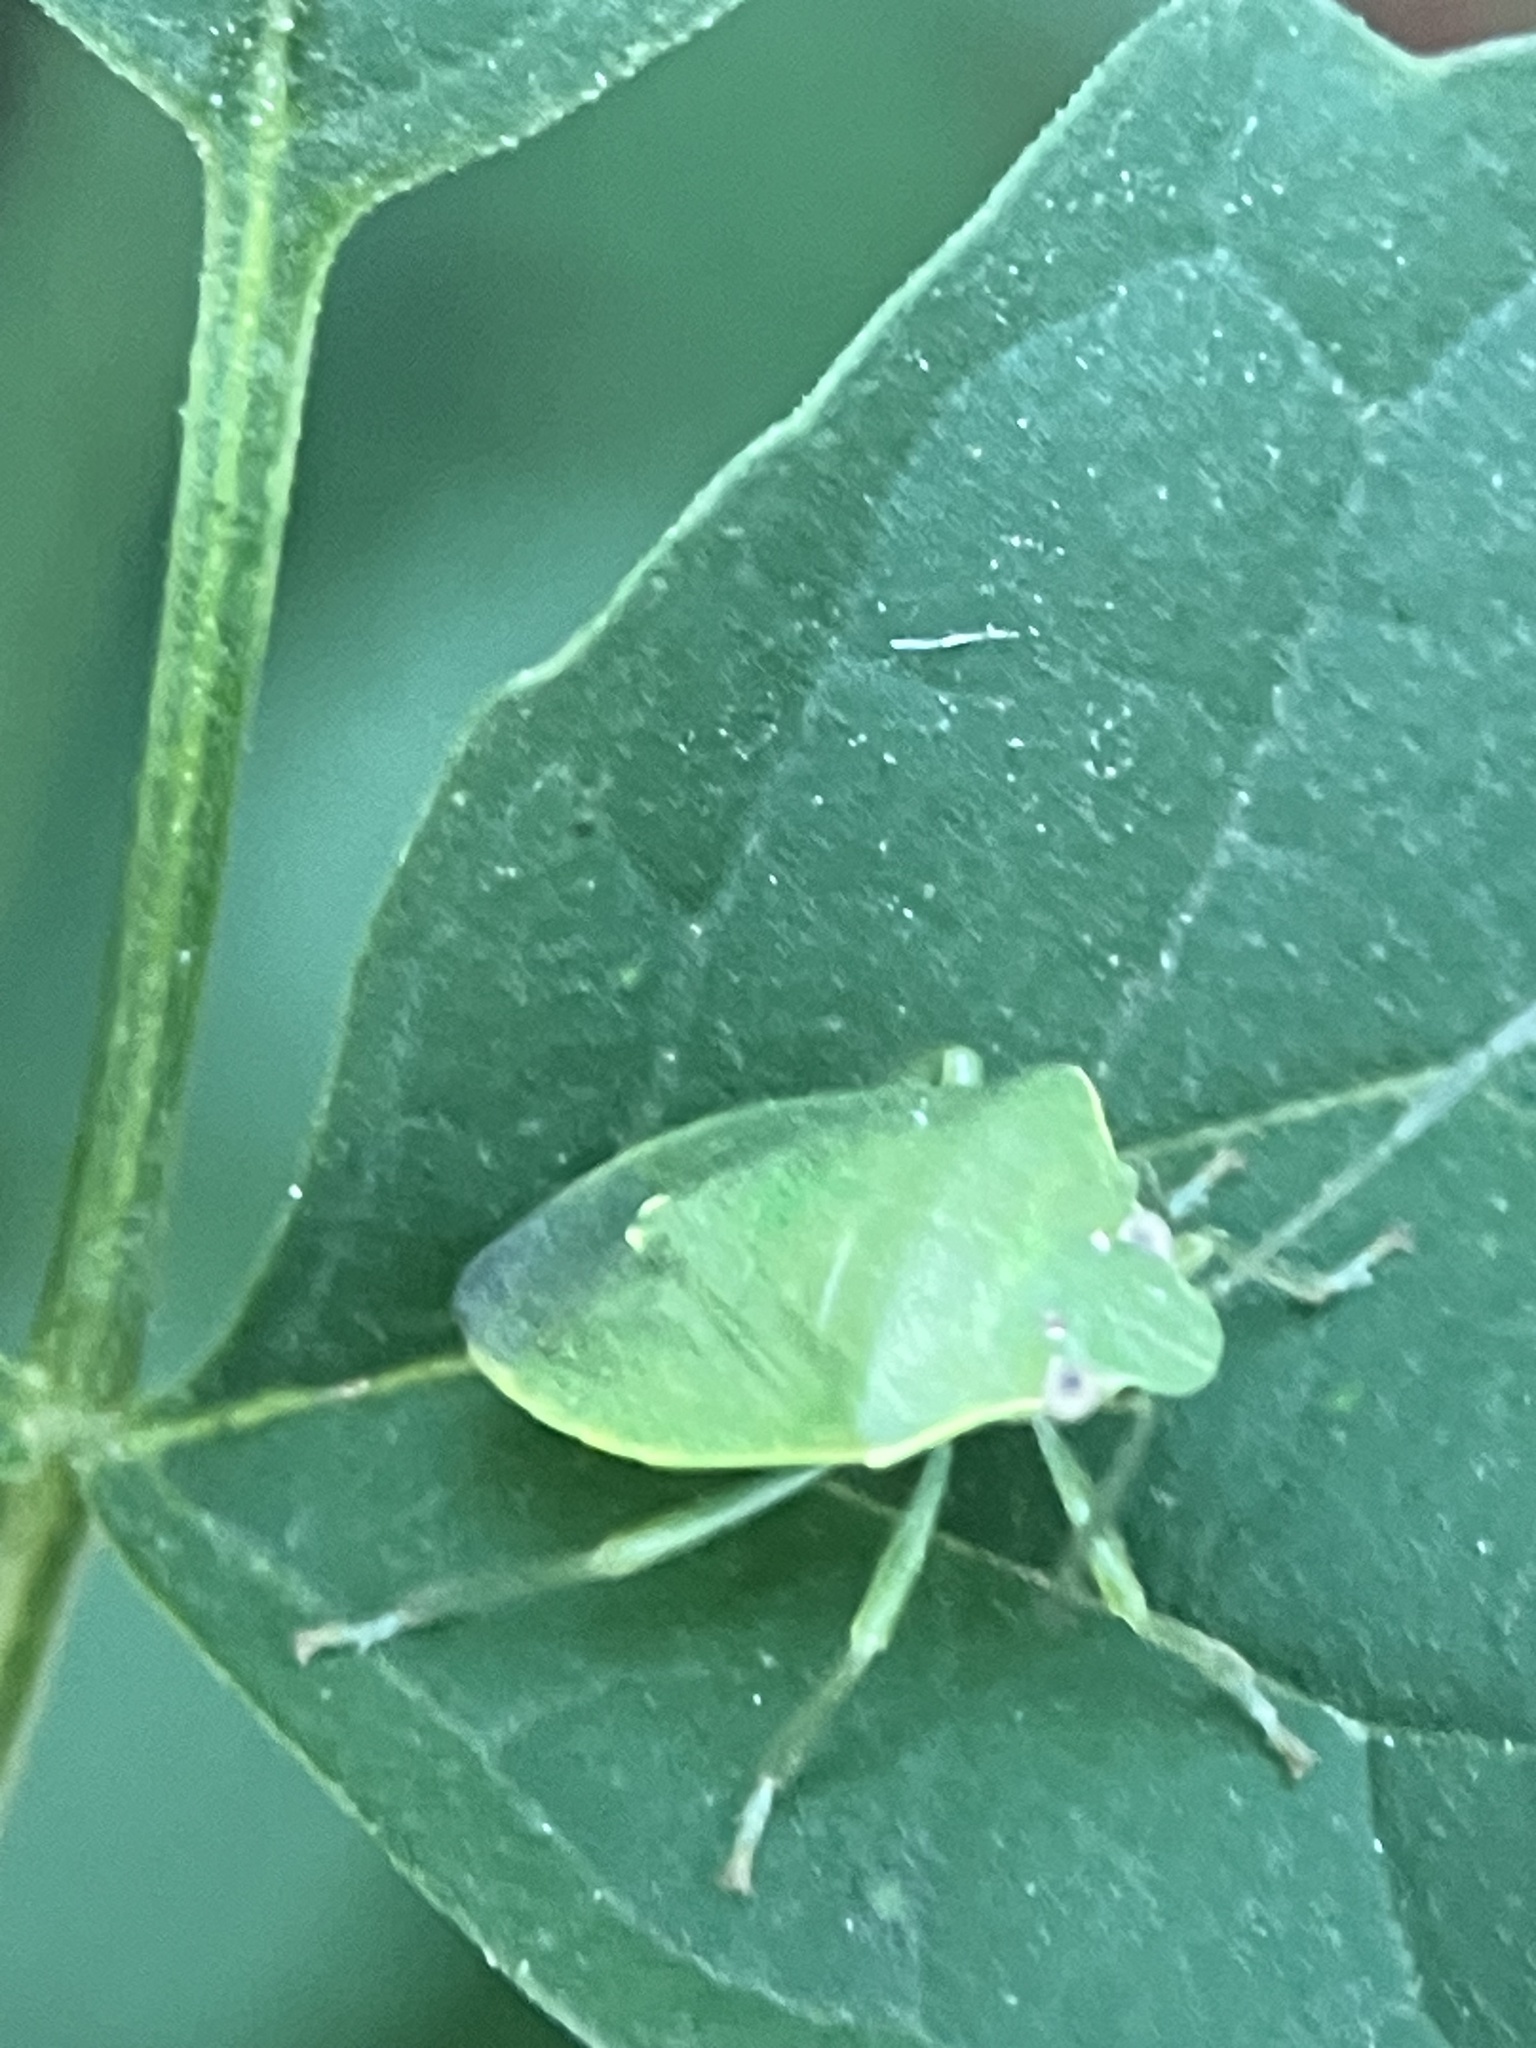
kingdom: Animalia
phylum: Arthropoda
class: Insecta
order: Hemiptera
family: Pentatomidae
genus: Acrosternum
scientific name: Acrosternum gramineum
